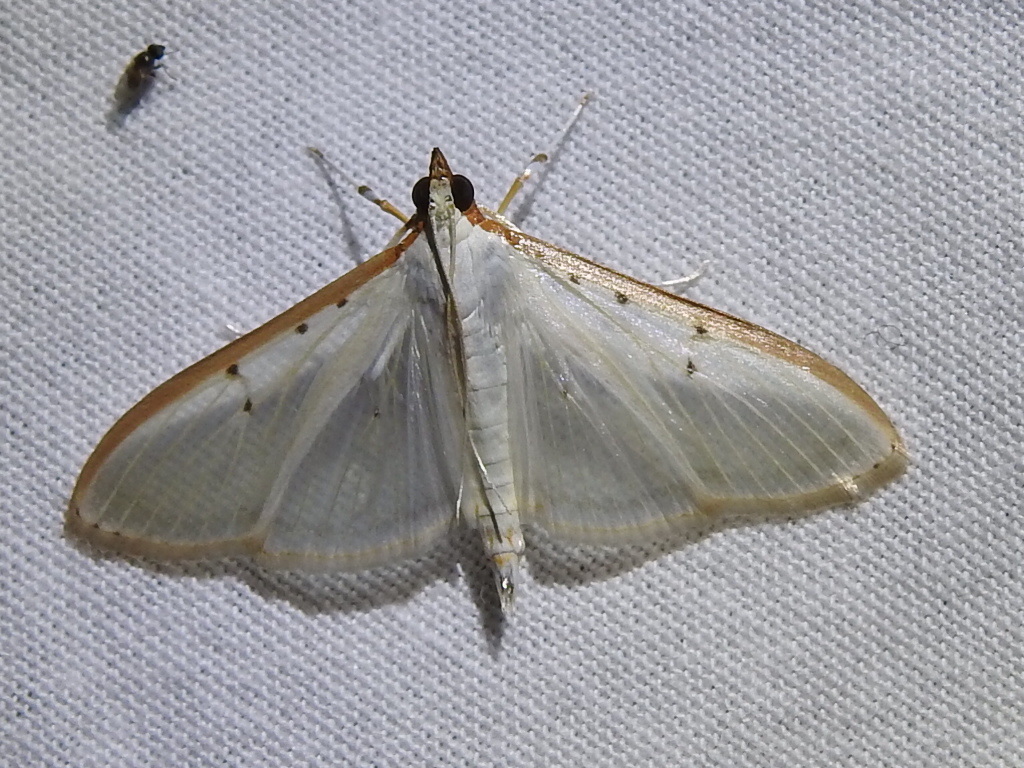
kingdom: Animalia
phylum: Arthropoda
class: Insecta
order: Lepidoptera
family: Crambidae
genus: Palpita
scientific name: Palpita quadristigmalis
